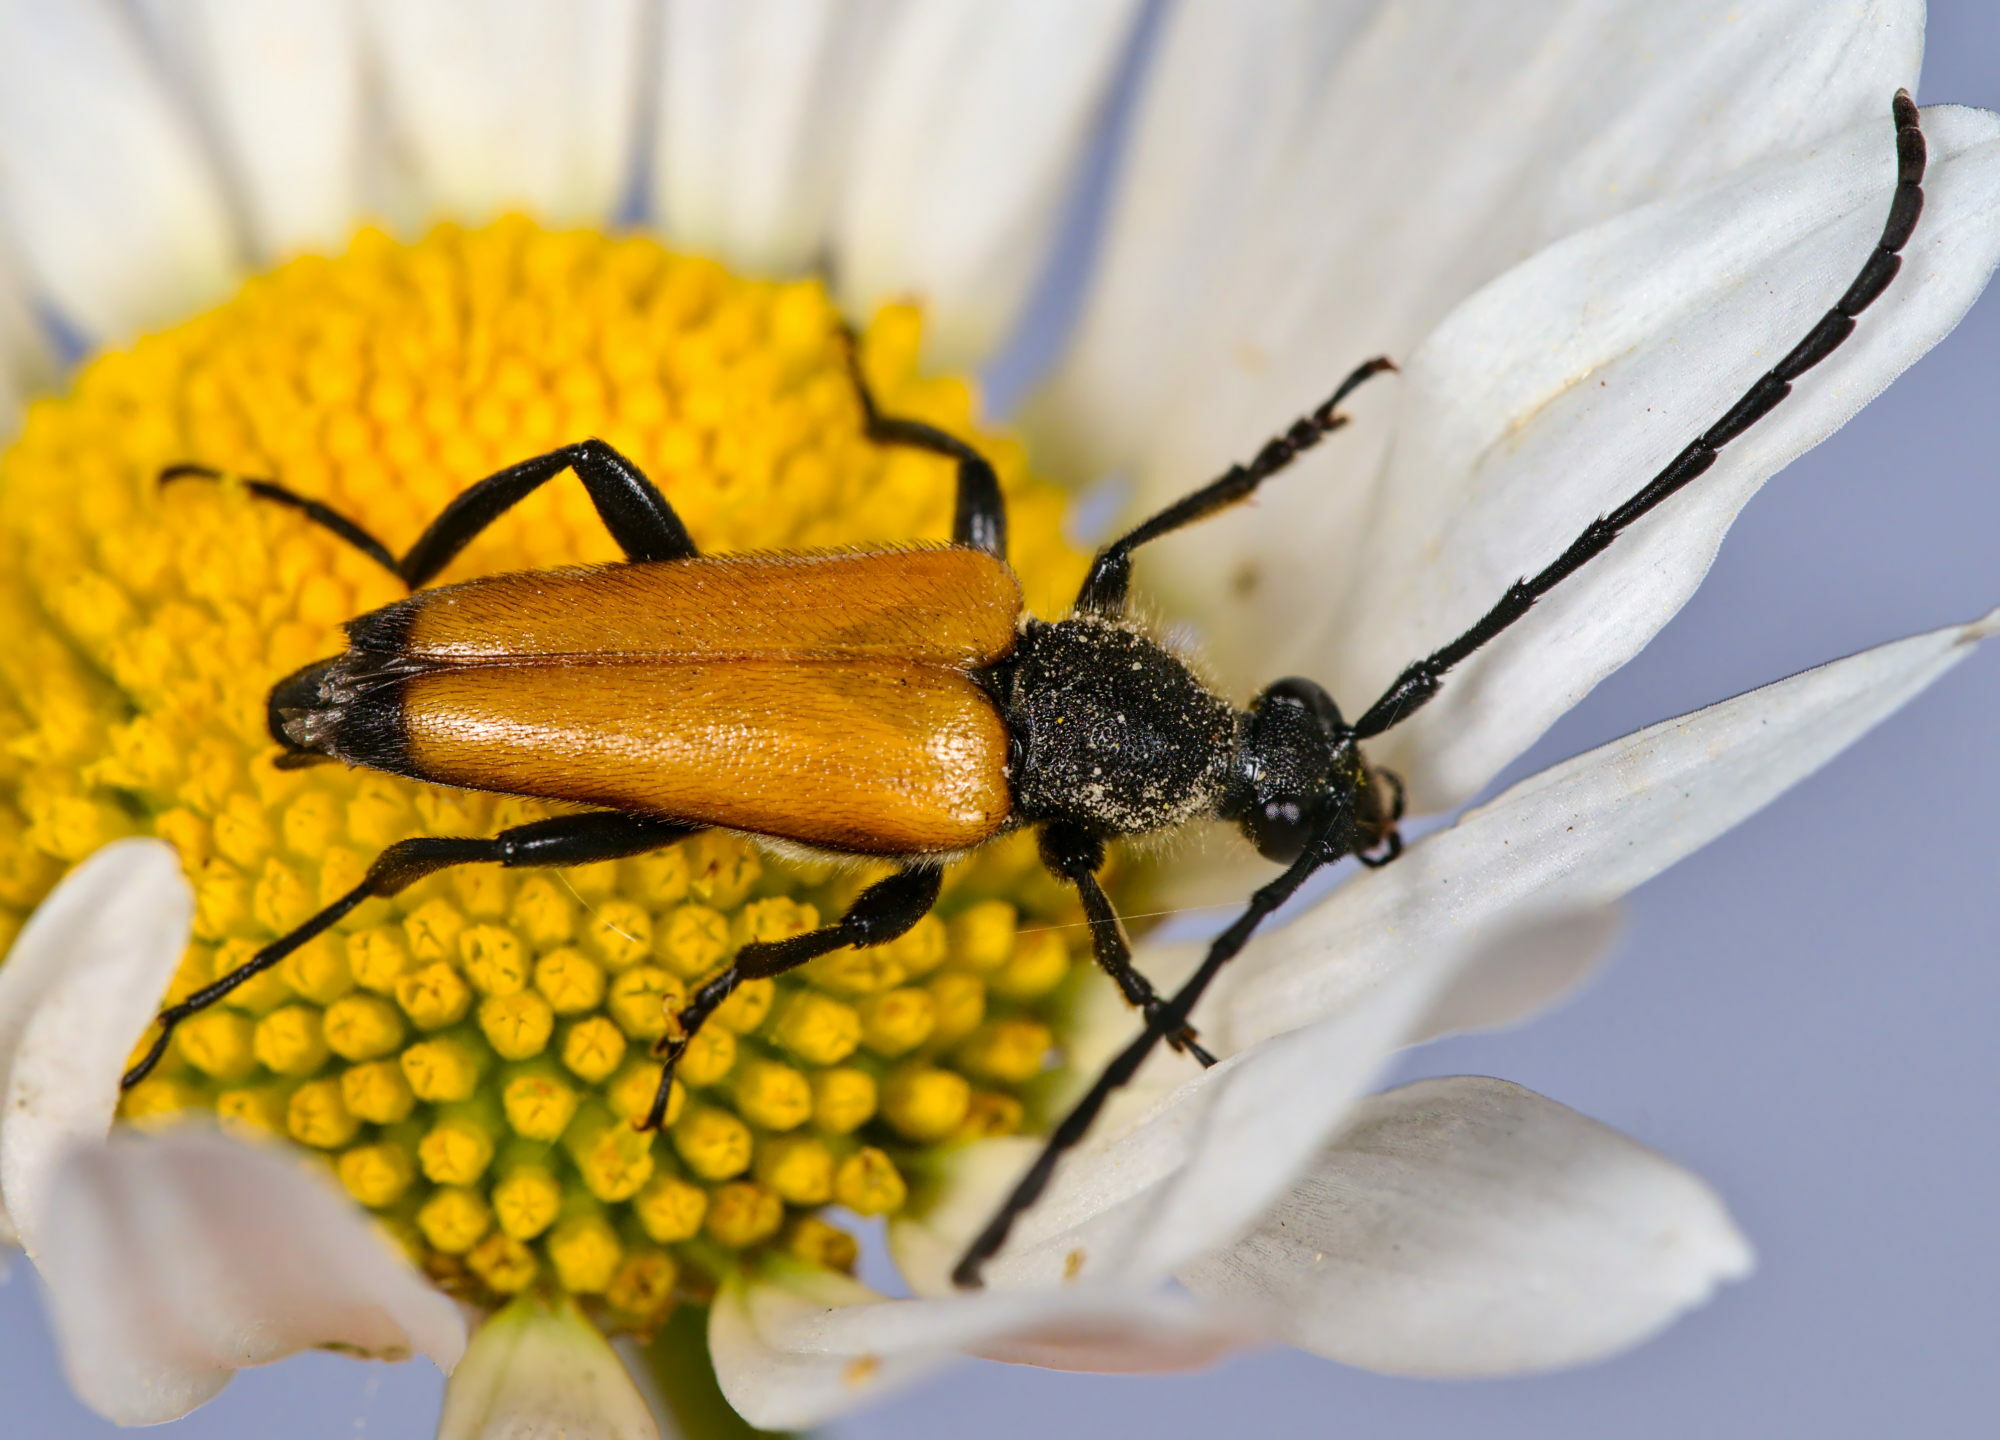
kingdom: Animalia
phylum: Arthropoda
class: Insecta
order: Coleoptera
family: Cerambycidae
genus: Paracorymbia
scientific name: Paracorymbia fulva
